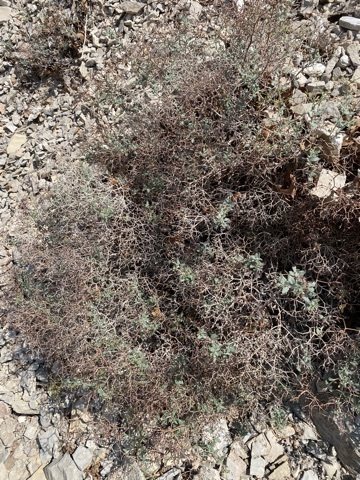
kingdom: Plantae
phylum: Tracheophyta
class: Magnoliopsida
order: Caryophyllales
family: Polygonaceae
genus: Eriogonum
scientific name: Eriogonum corymbosum
